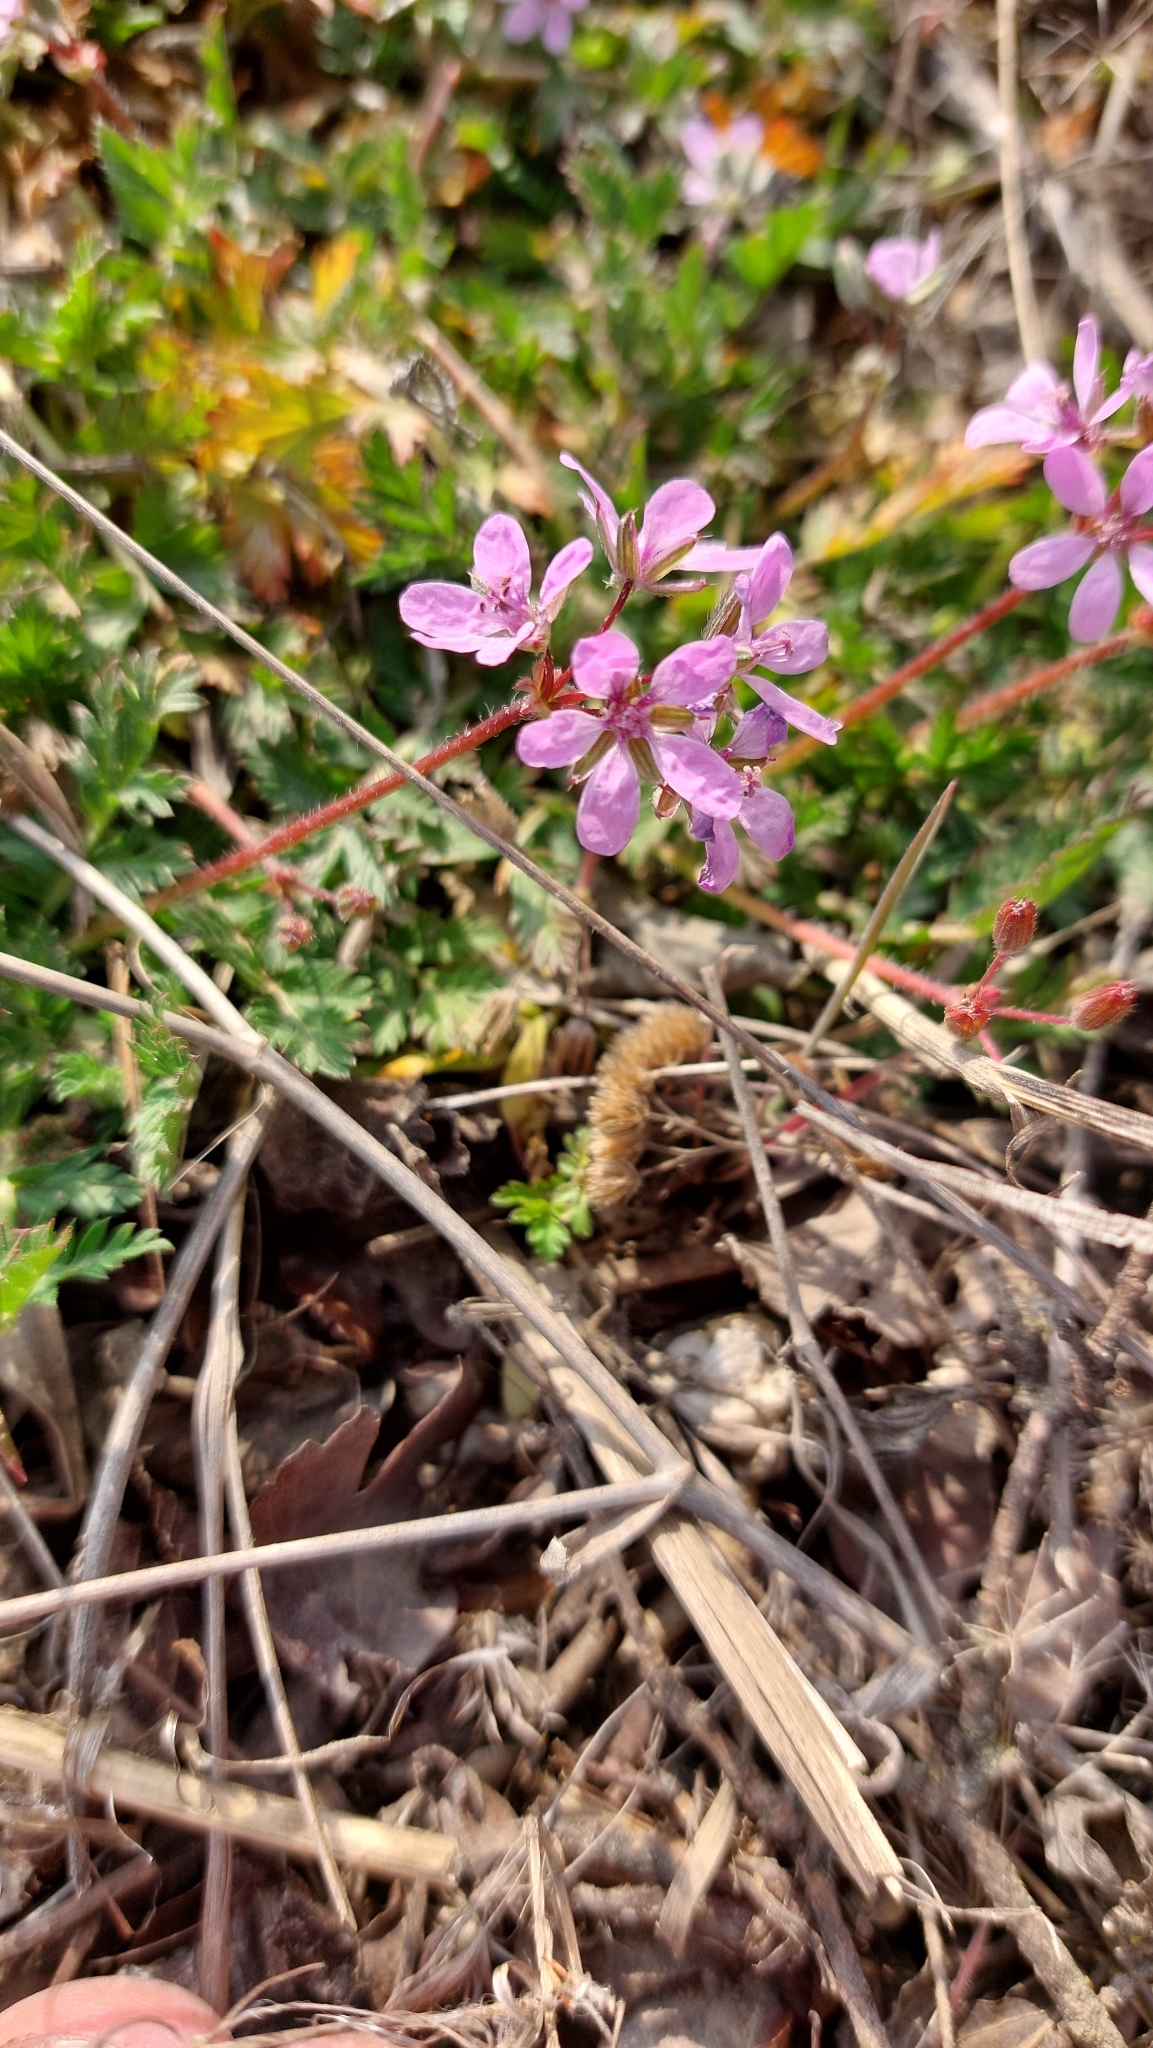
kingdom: Plantae
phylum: Tracheophyta
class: Magnoliopsida
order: Geraniales
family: Geraniaceae
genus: Erodium
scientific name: Erodium cicutarium
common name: Common stork's-bill
